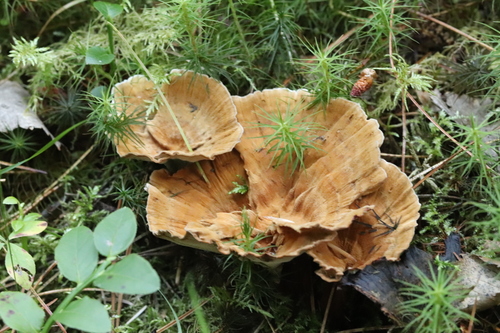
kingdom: Fungi
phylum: Basidiomycota
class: Agaricomycetes
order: Hymenochaetales
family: Hymenochaetaceae
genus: Coltricia
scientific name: Coltricia perennis
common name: Tiger's eye
